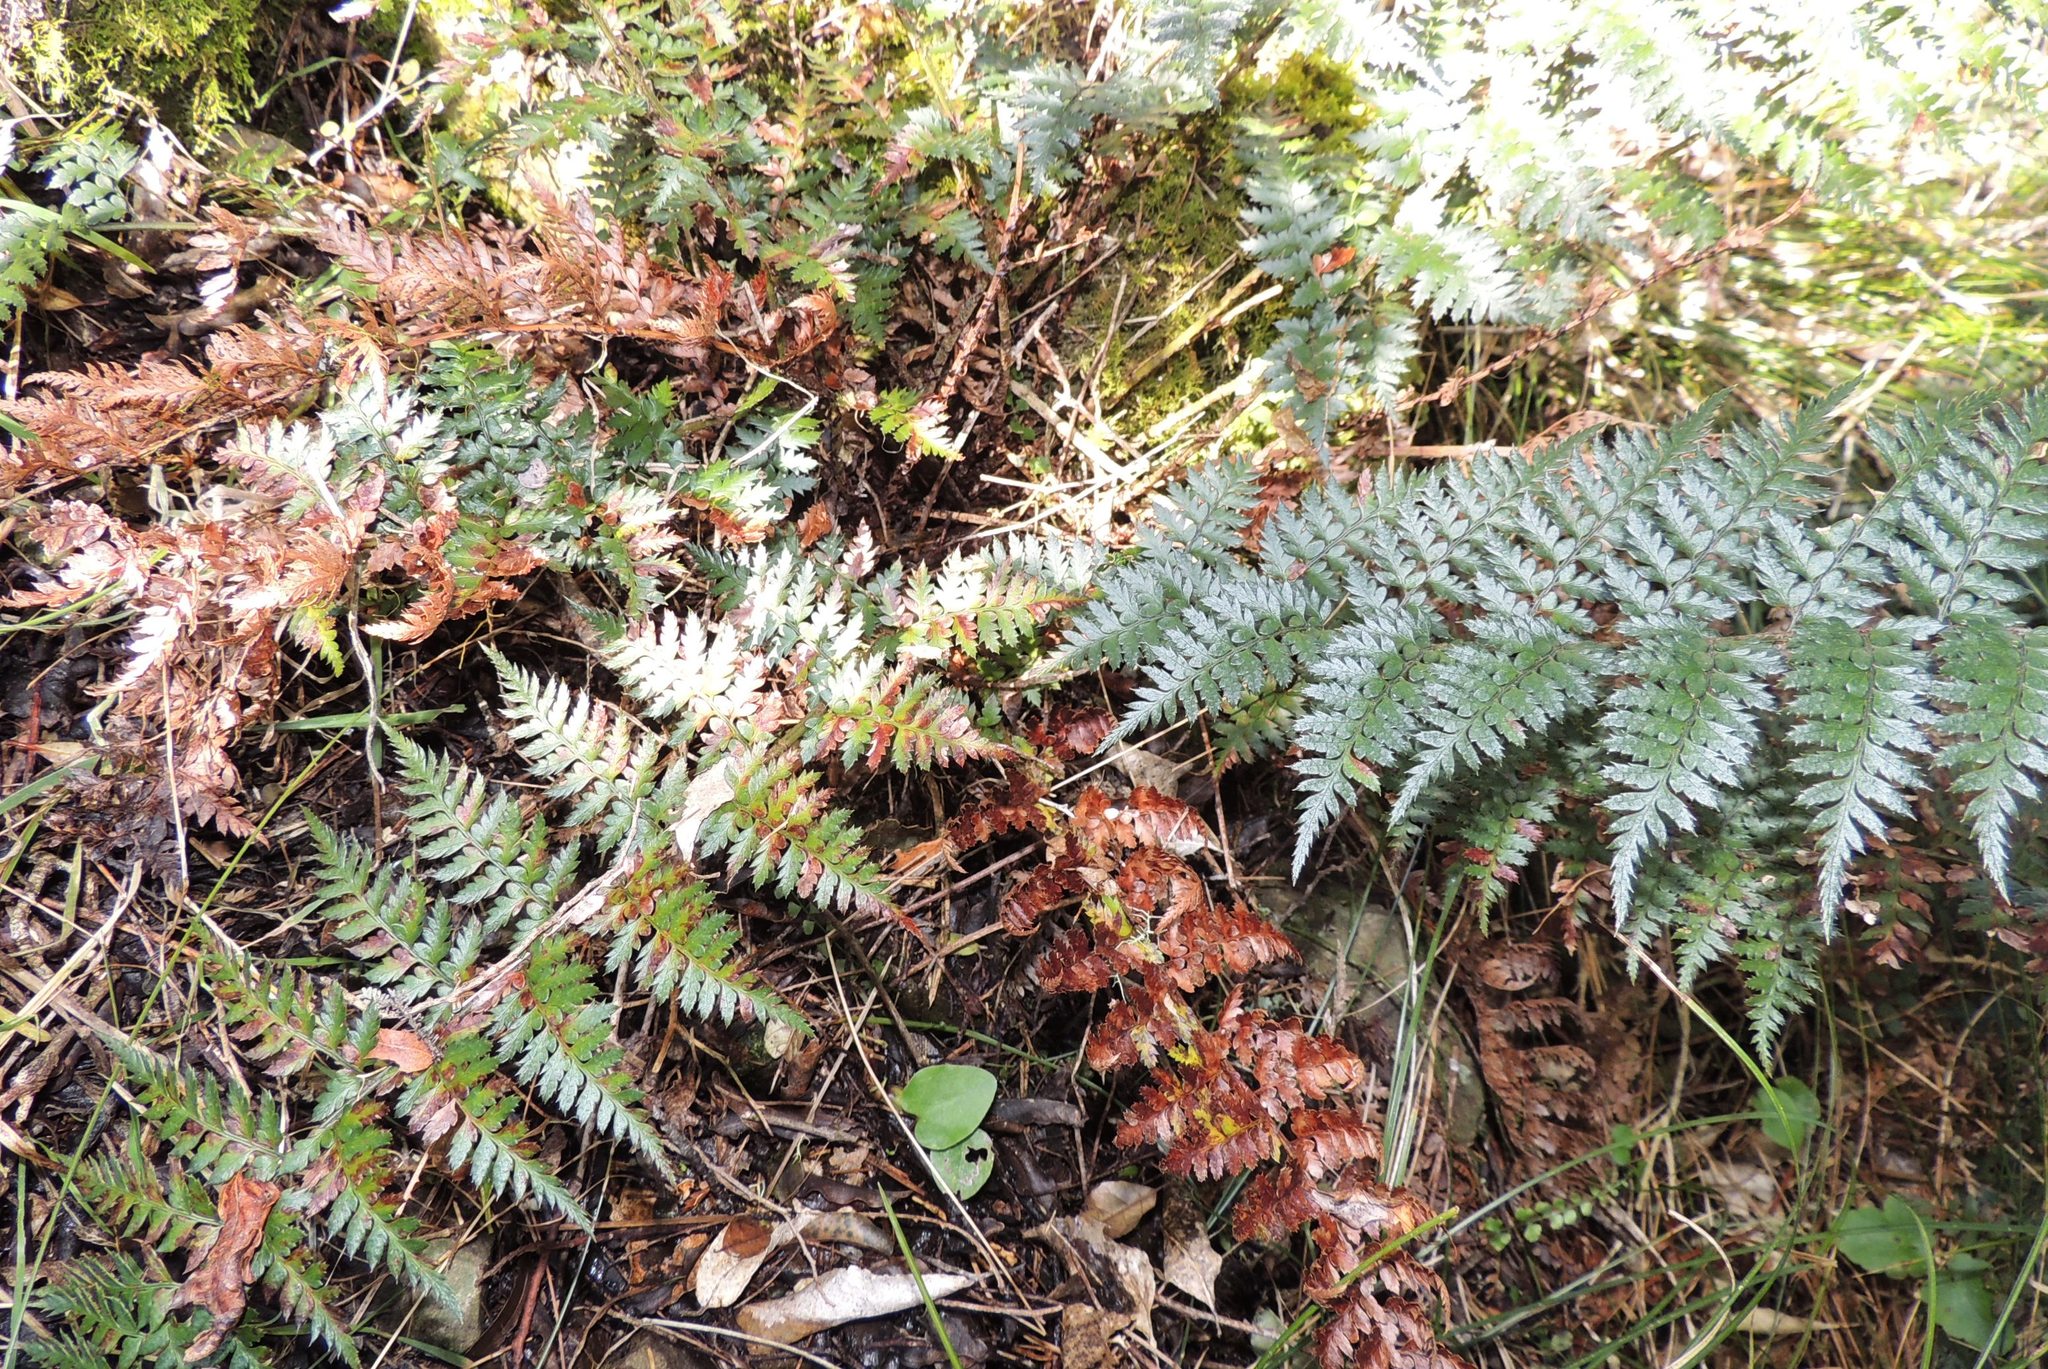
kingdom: Plantae
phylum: Tracheophyta
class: Polypodiopsida
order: Polypodiales
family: Dryopteridaceae
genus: Polystichum
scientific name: Polystichum oculatum
